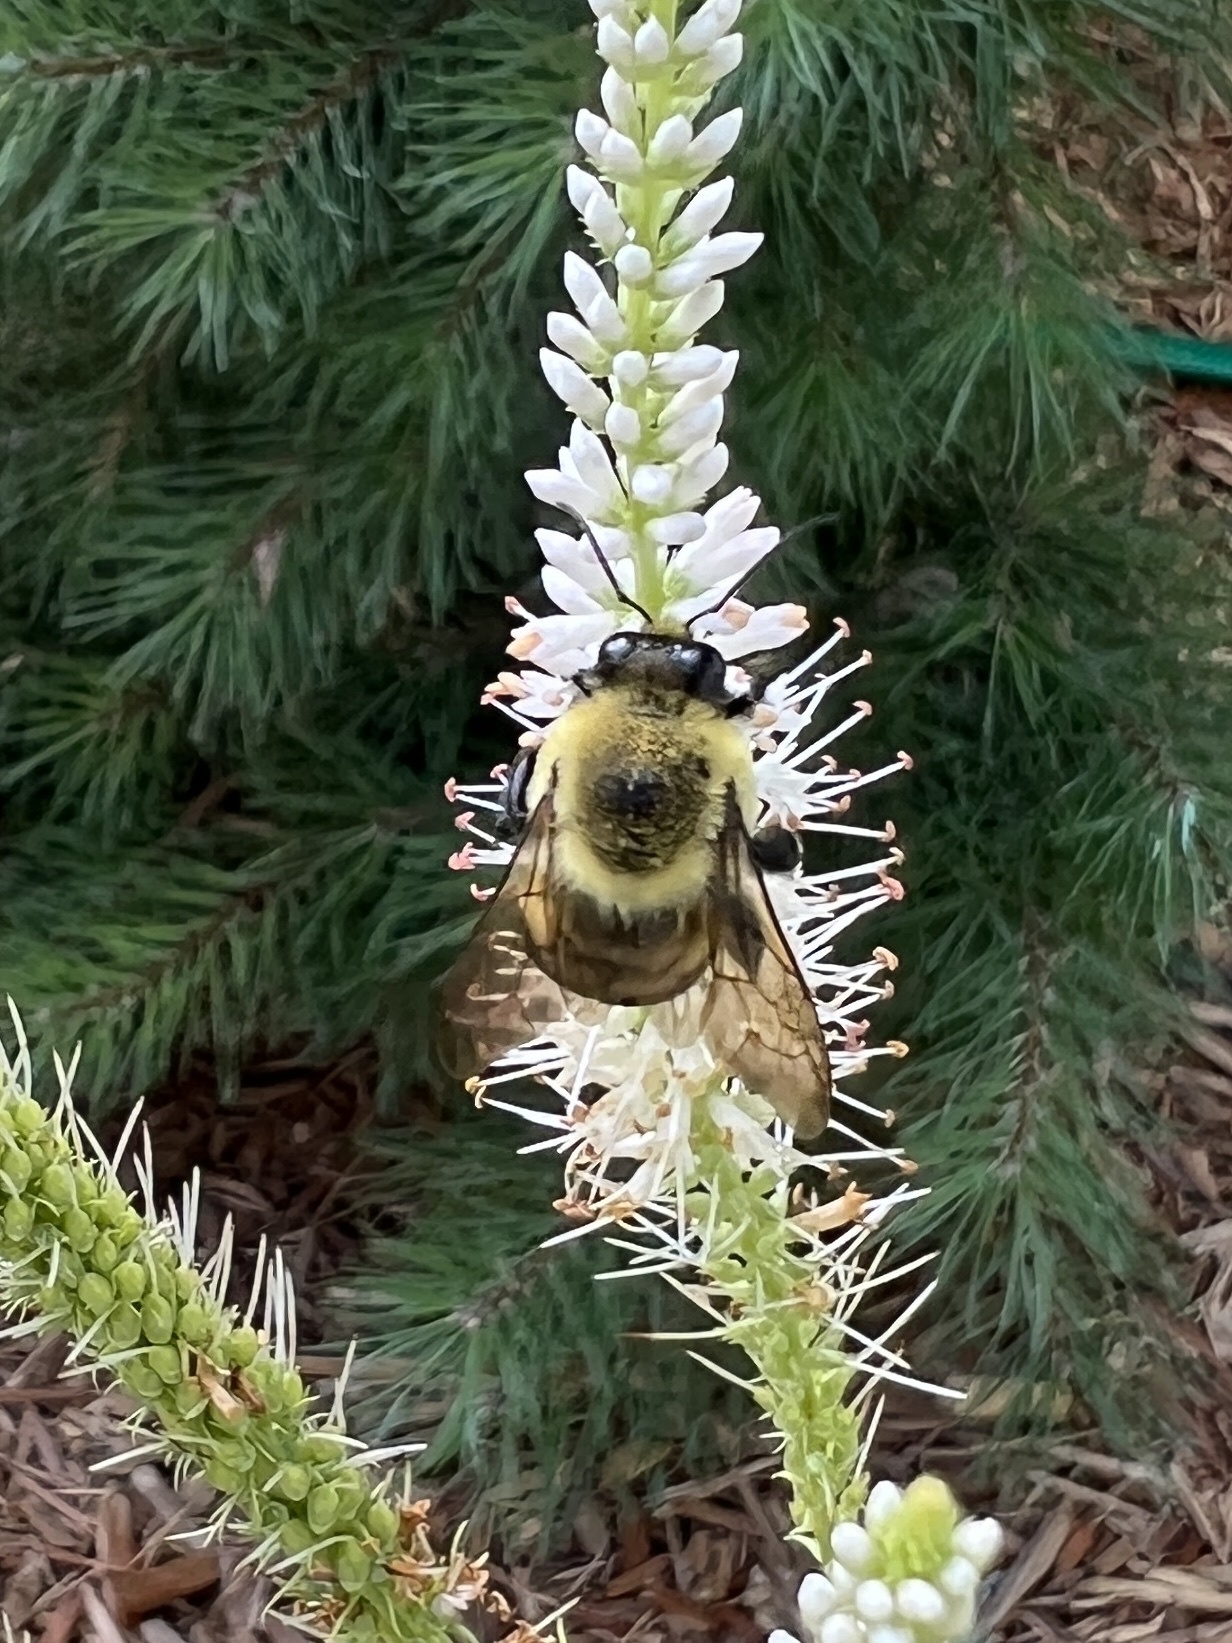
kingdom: Animalia
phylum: Arthropoda
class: Insecta
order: Hymenoptera
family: Apidae
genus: Bombus
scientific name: Bombus griseocollis
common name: Brown-belted bumble bee
